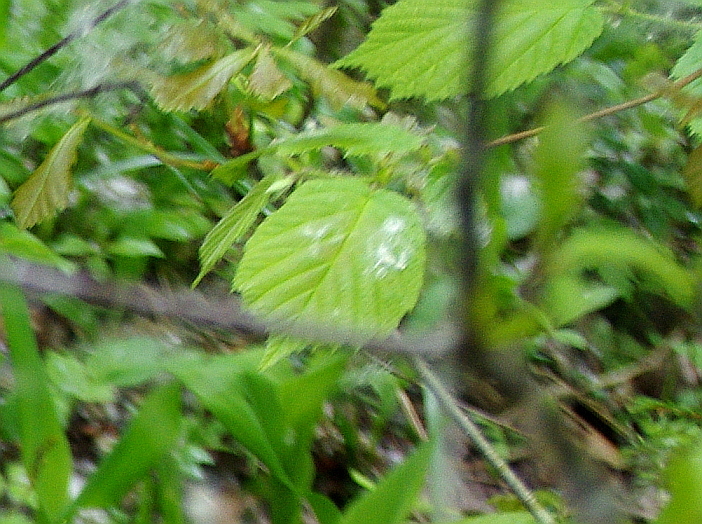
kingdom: Plantae
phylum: Tracheophyta
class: Magnoliopsida
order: Fagales
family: Betulaceae
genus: Corylus
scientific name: Corylus avellana
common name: European hazel
